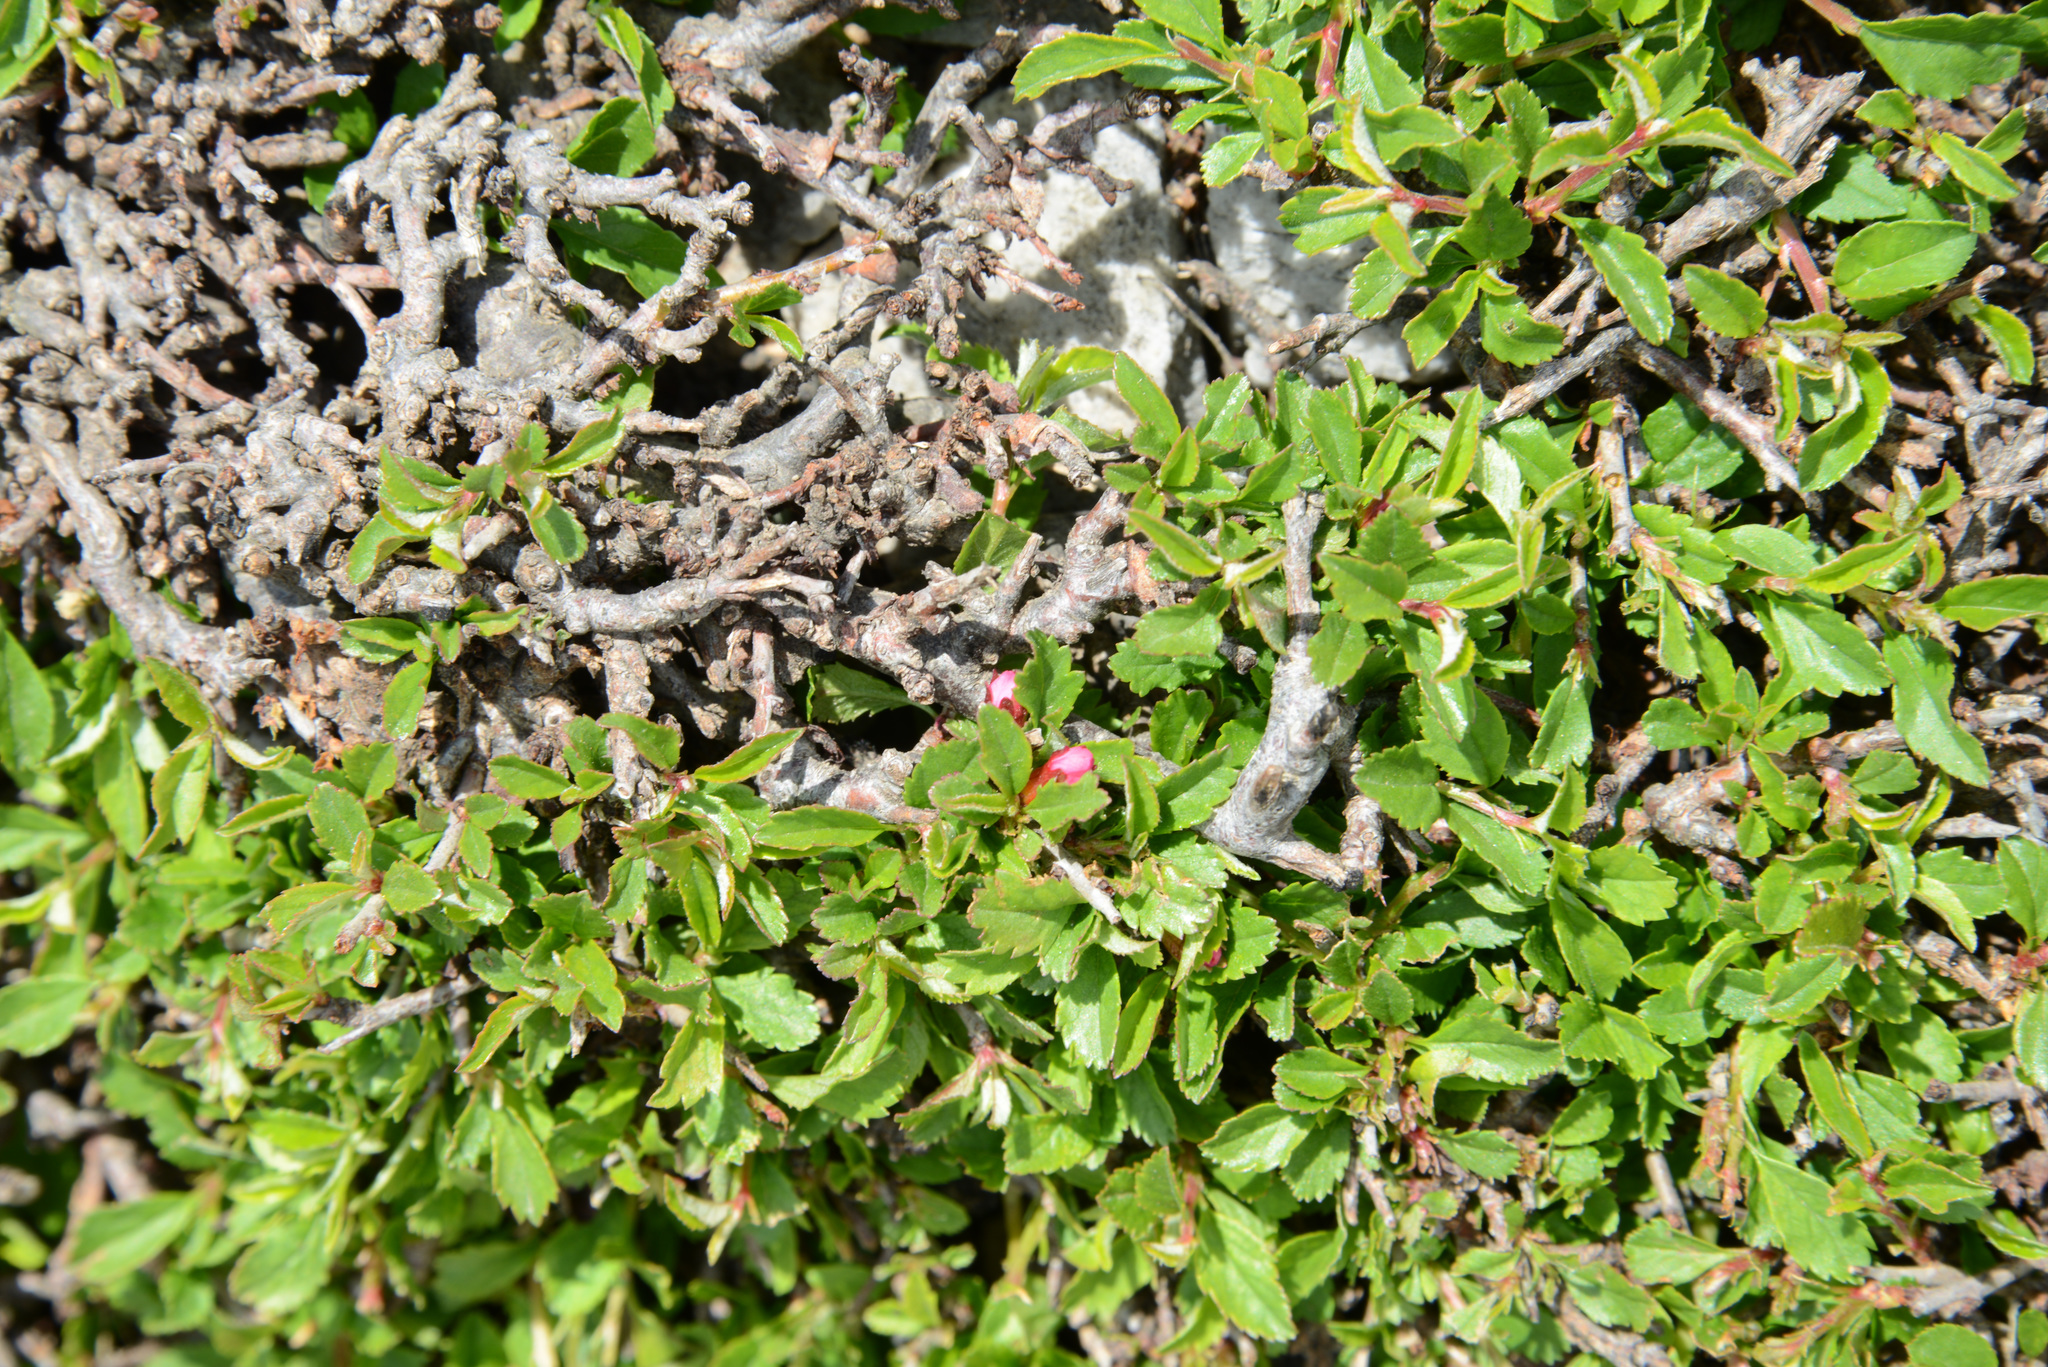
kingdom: Plantae
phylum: Tracheophyta
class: Magnoliopsida
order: Rosales
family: Rosaceae
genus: Prunus
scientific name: Prunus prostrata
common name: Mountain cherry
